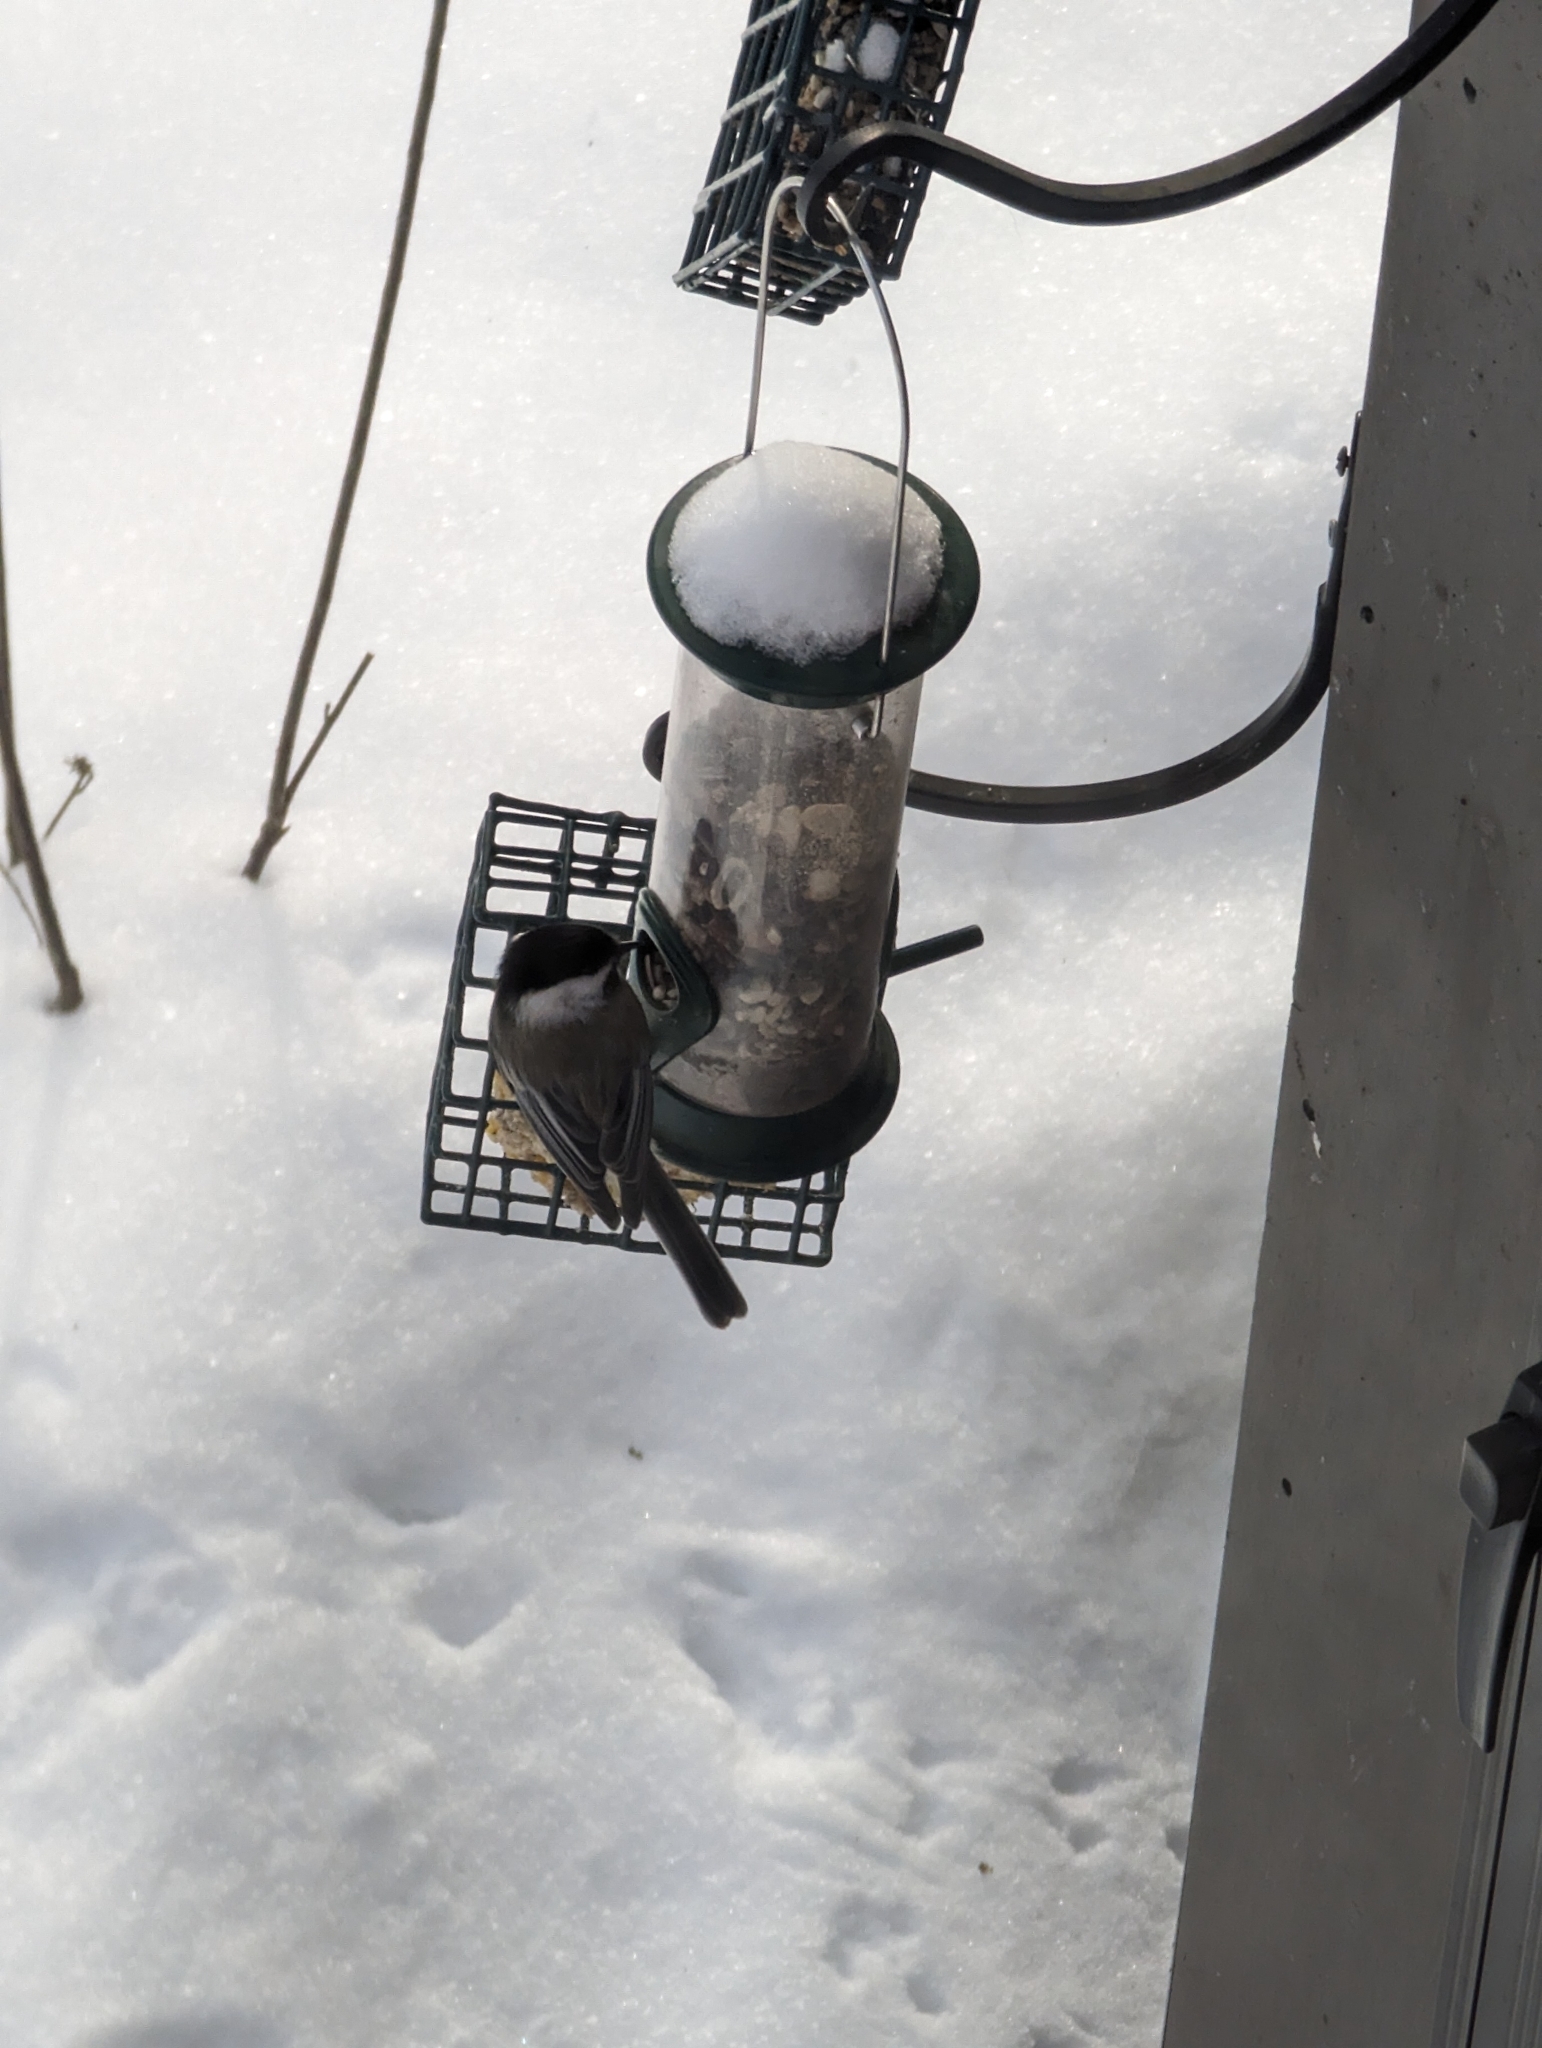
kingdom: Animalia
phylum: Chordata
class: Aves
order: Passeriformes
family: Paridae
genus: Poecile
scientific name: Poecile atricapillus
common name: Black-capped chickadee
